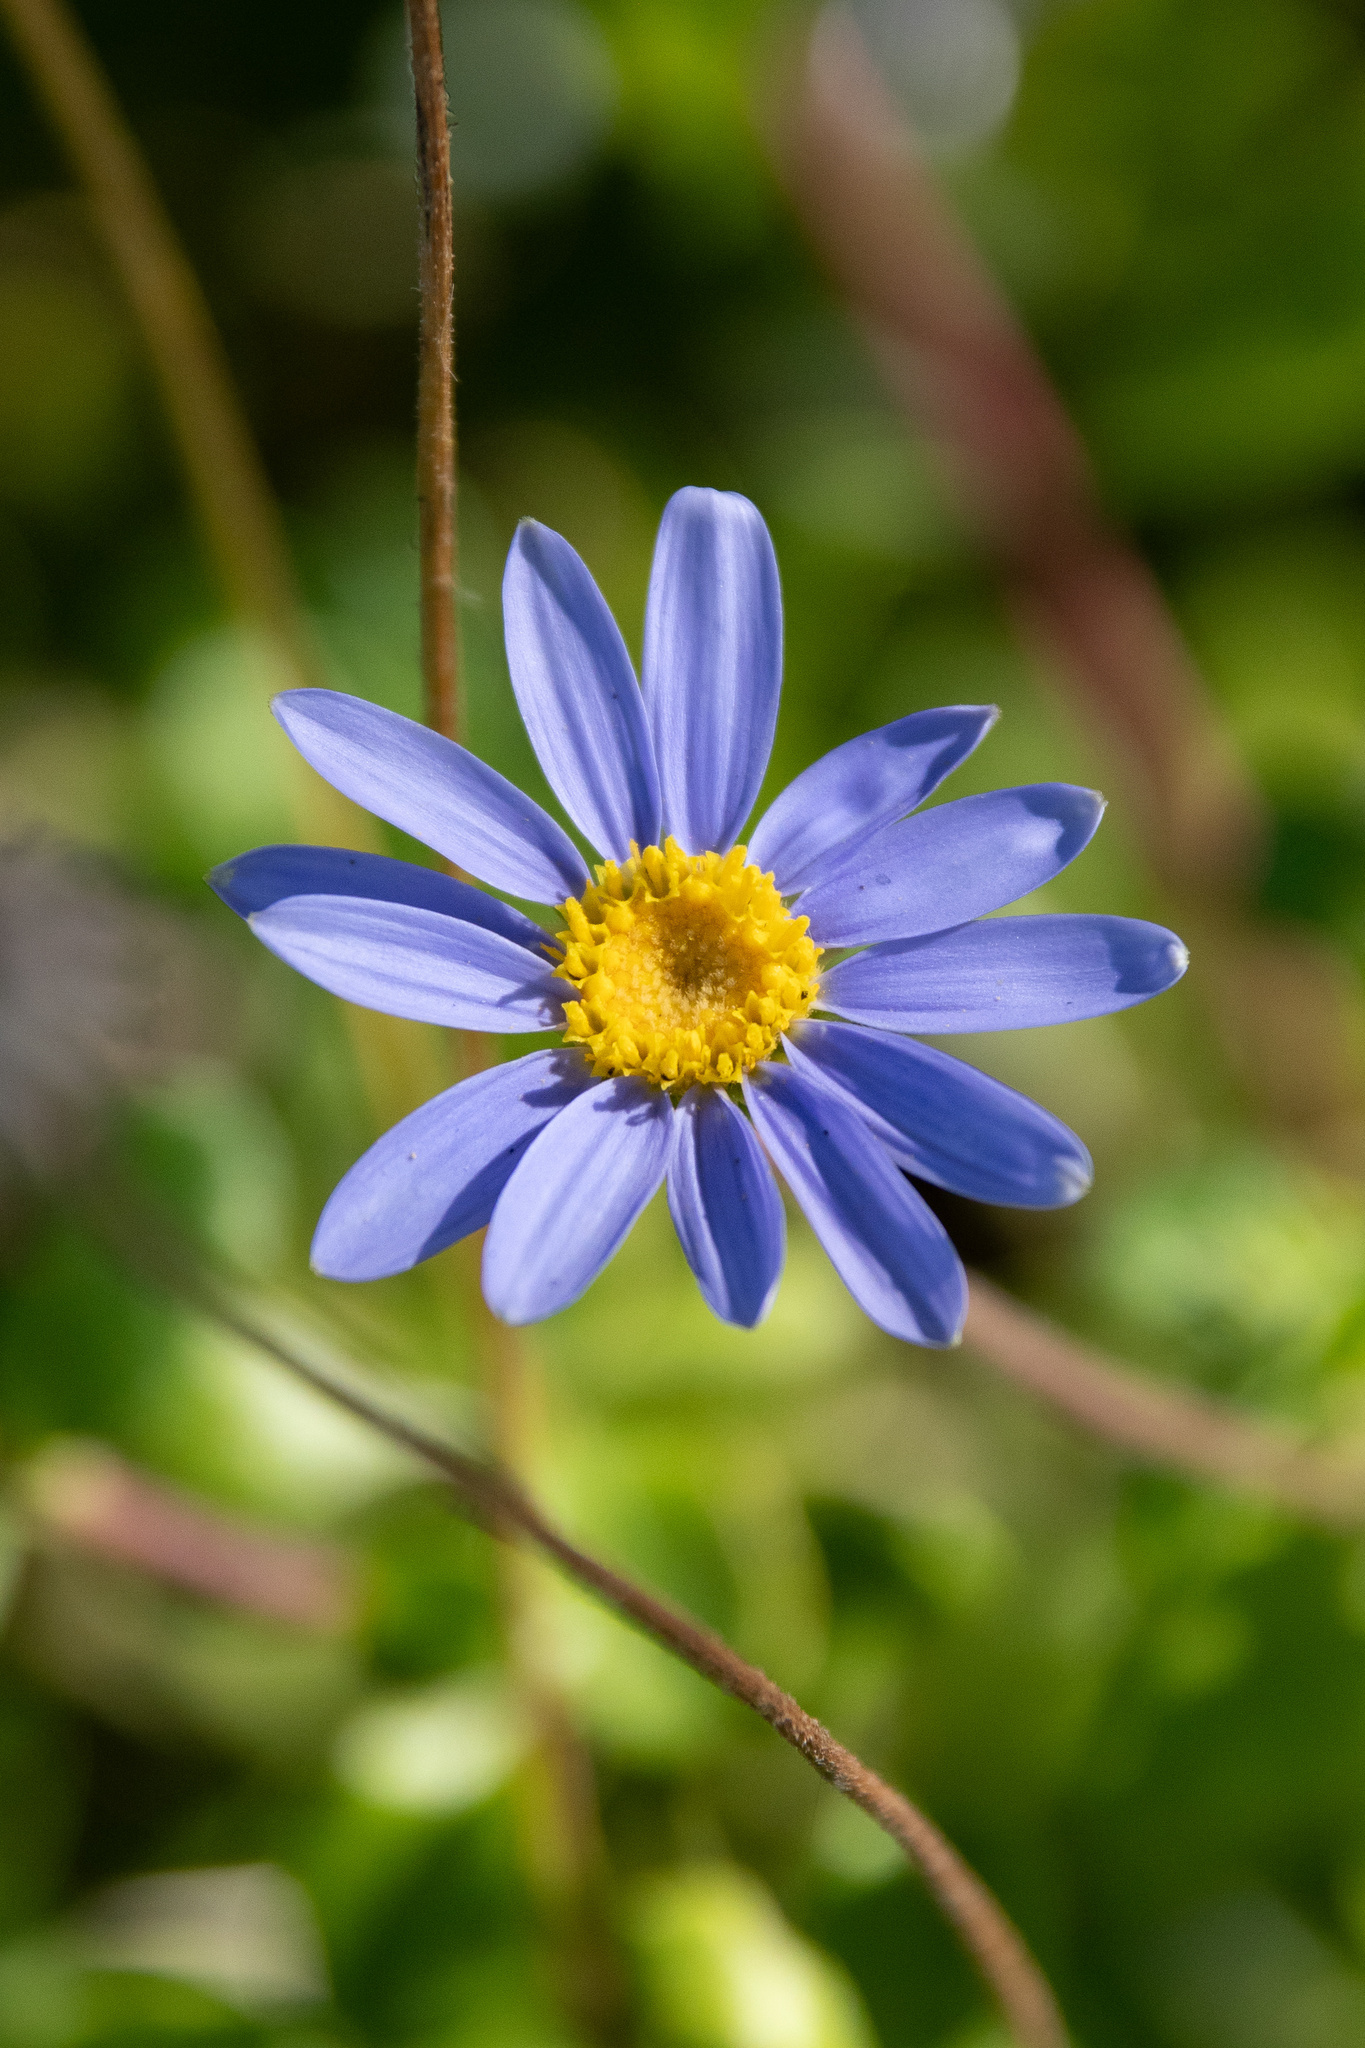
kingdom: Plantae
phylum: Tracheophyta
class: Magnoliopsida
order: Asterales
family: Asteraceae
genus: Felicia
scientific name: Felicia aethiopica
